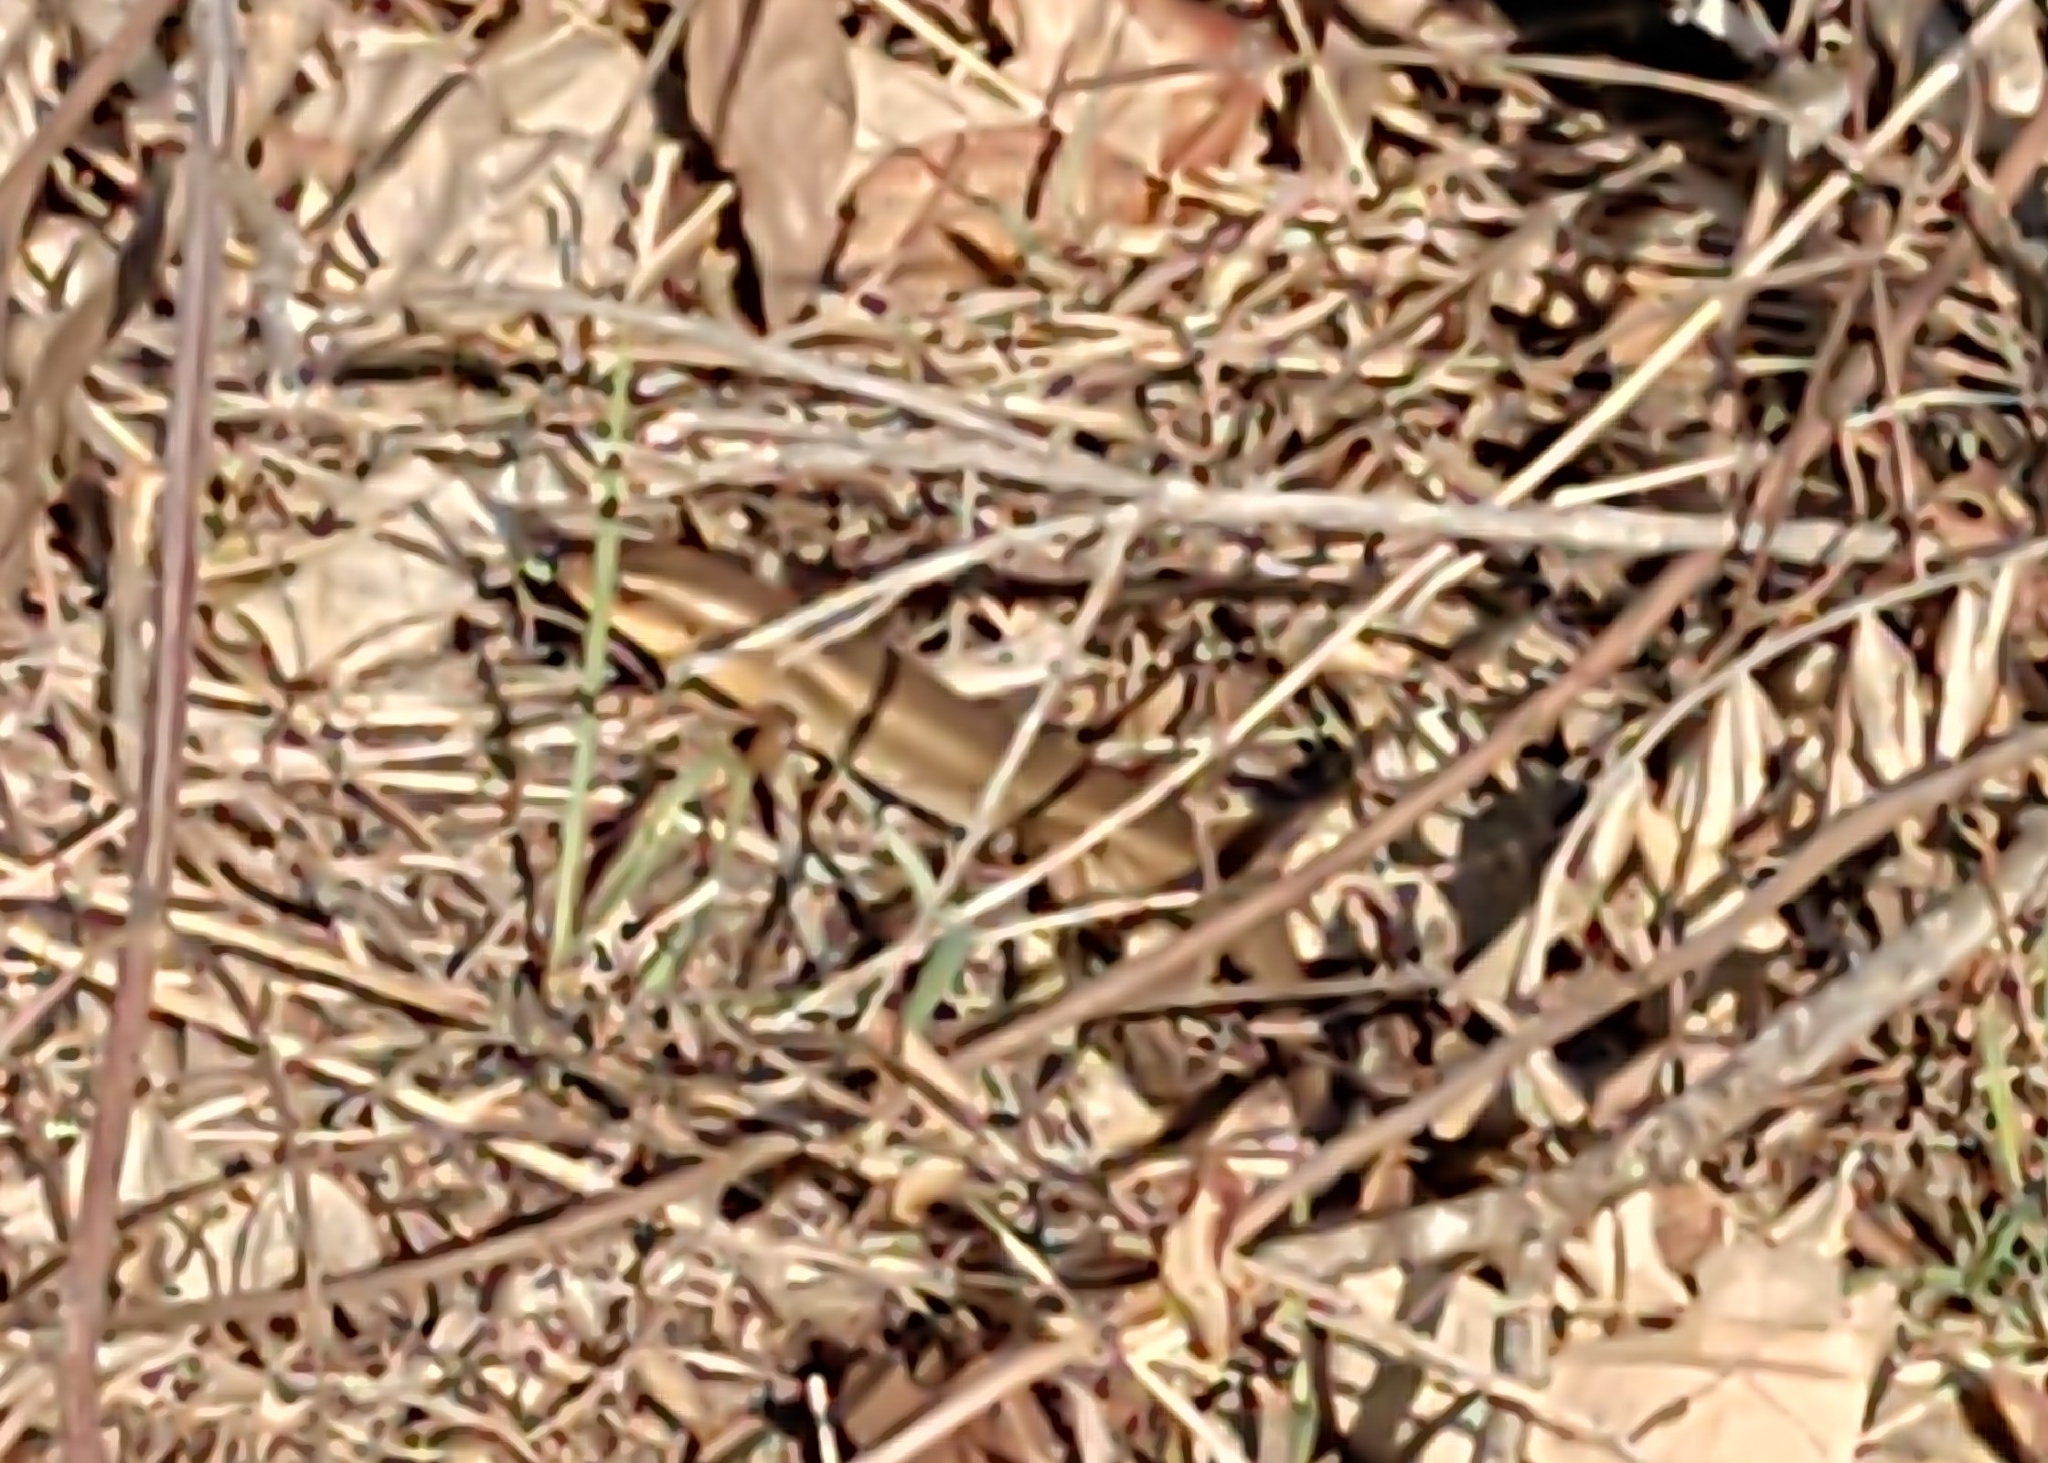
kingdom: Animalia
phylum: Chordata
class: Squamata
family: Scincidae
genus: Eutropis
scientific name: Eutropis multifasciata
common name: Common mabuya
